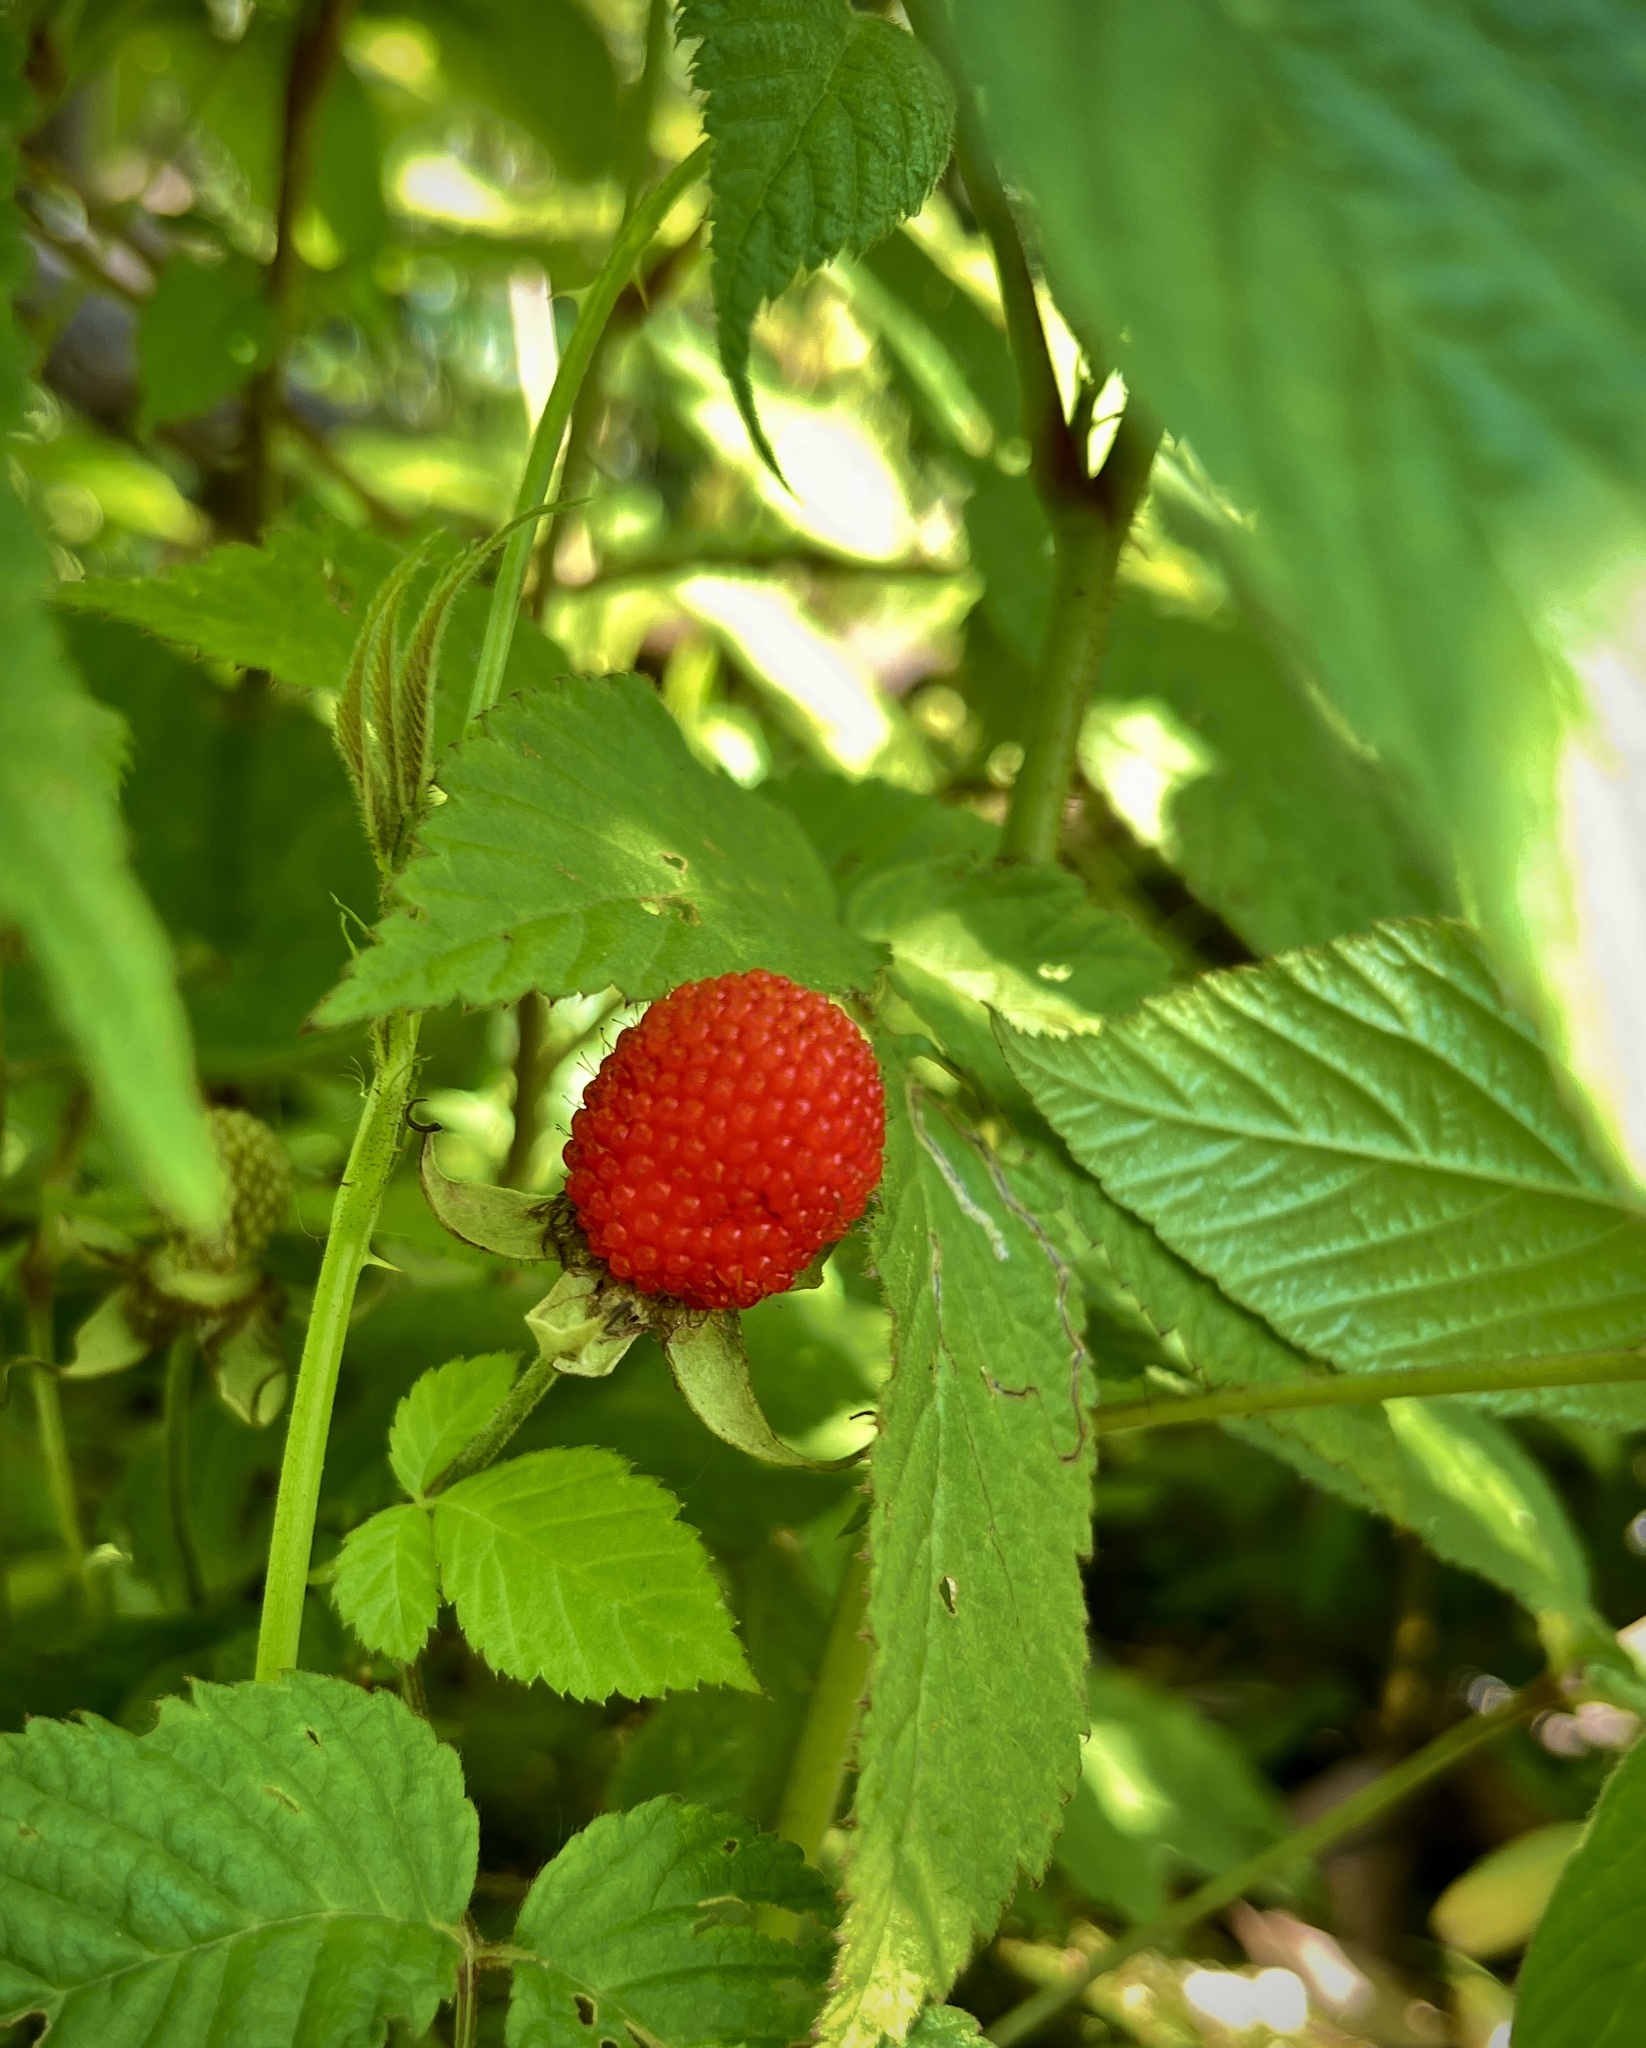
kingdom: Plantae
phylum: Tracheophyta
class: Magnoliopsida
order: Rosales
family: Rosaceae
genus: Rubus
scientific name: Rubus hirsutus
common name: Hirsute raspberry
